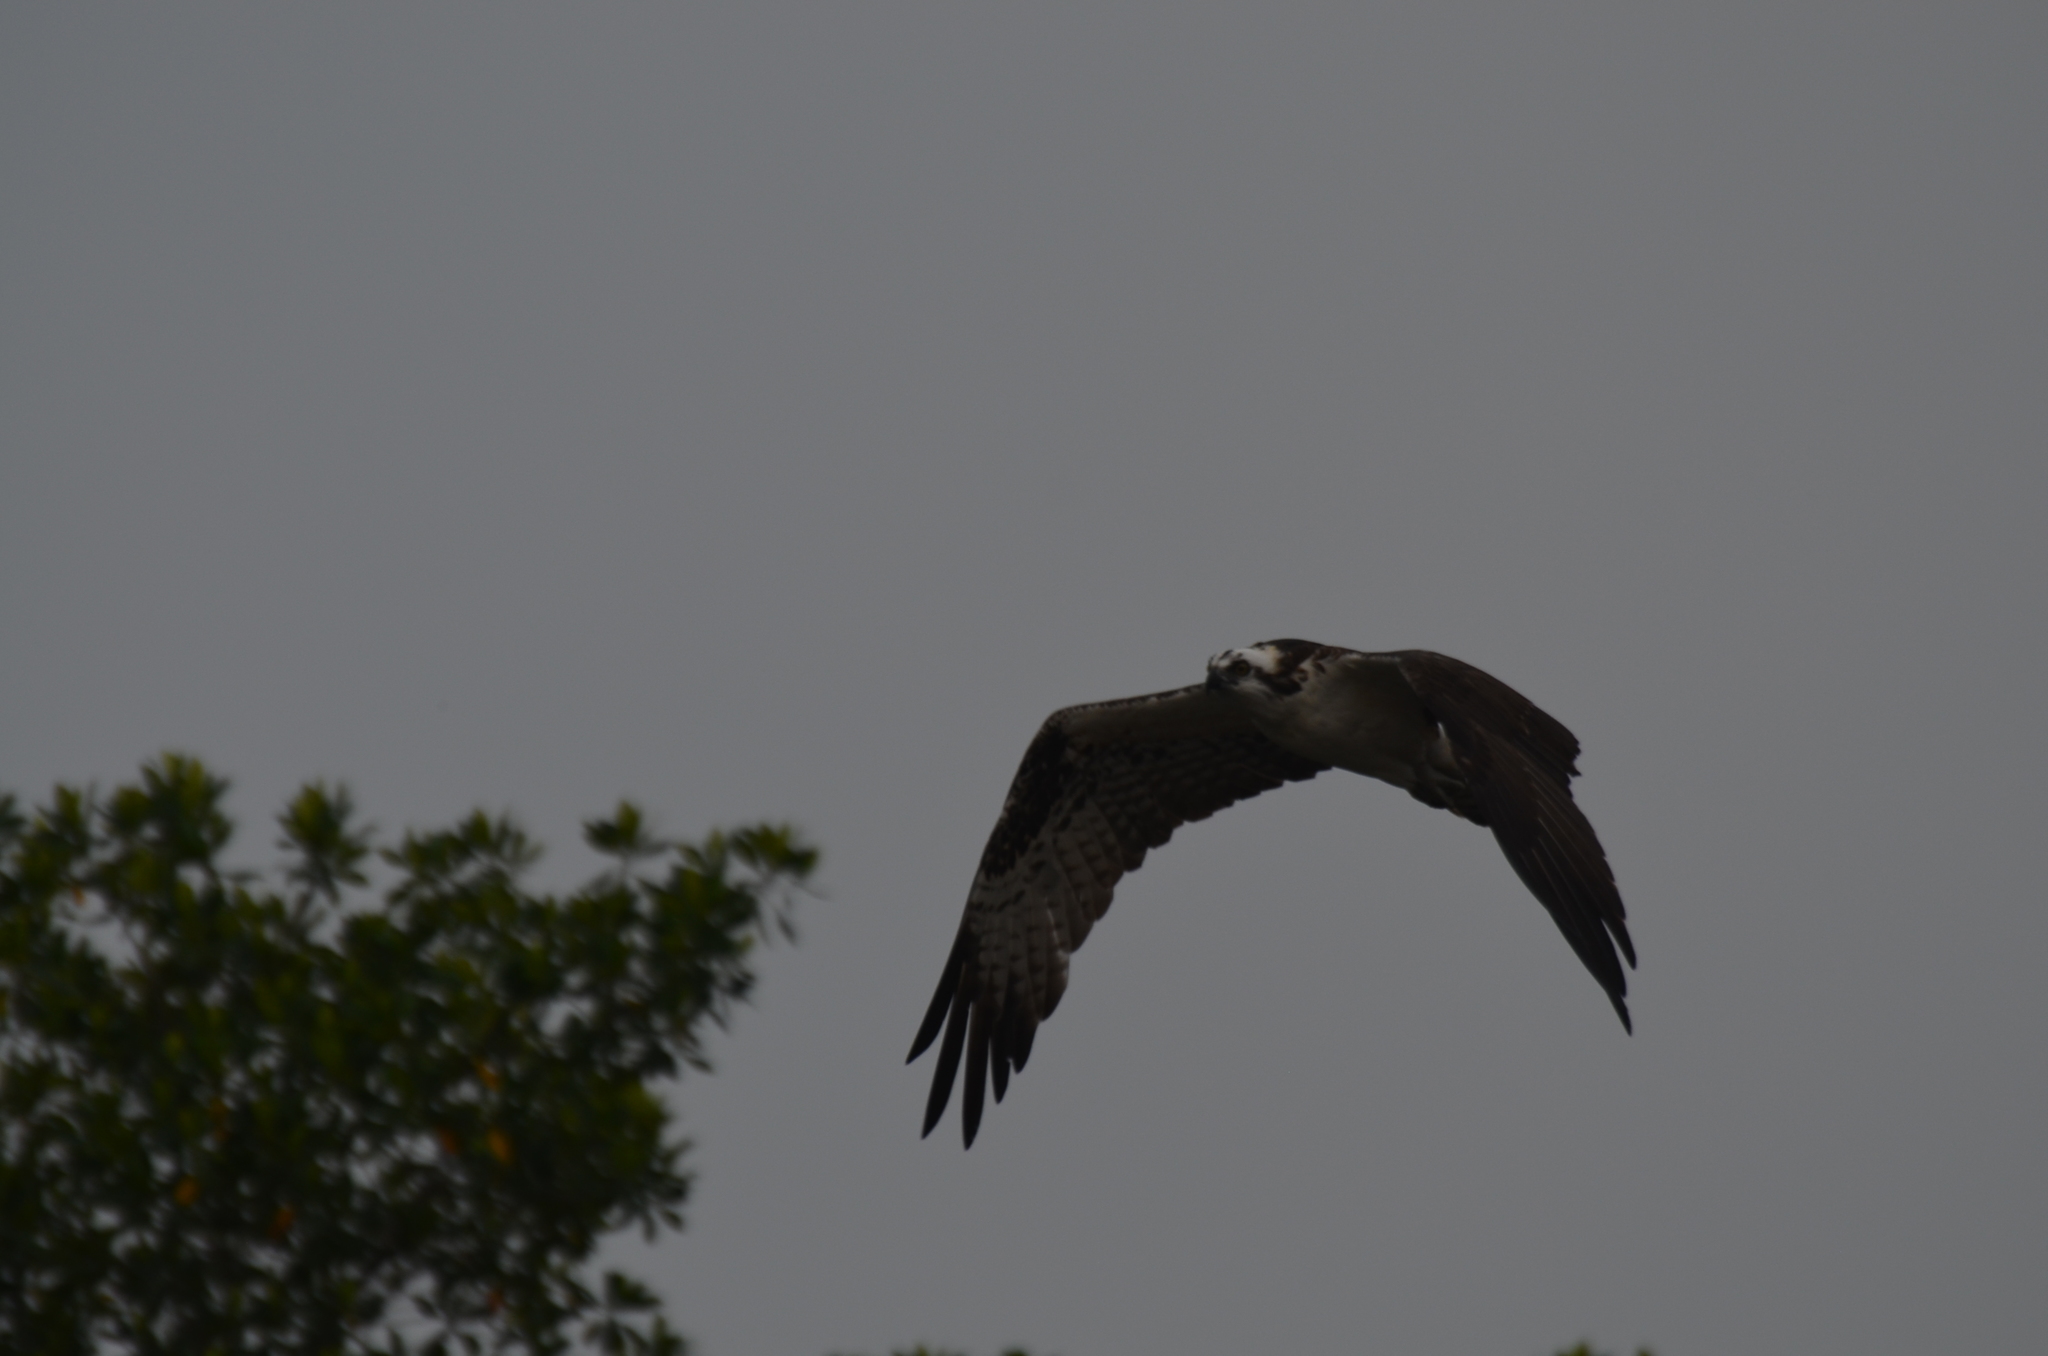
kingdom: Animalia
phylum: Chordata
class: Aves
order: Accipitriformes
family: Pandionidae
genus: Pandion
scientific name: Pandion haliaetus
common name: Osprey
